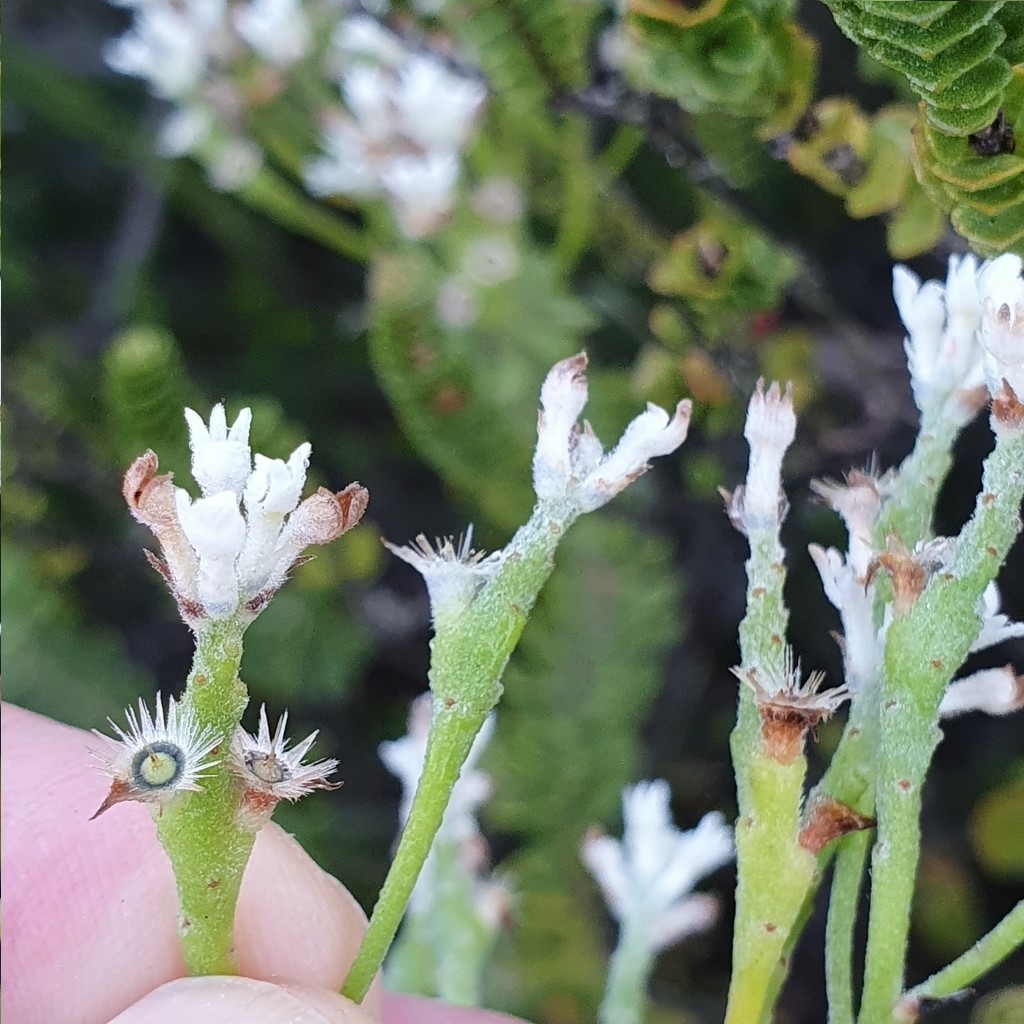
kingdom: Plantae
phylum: Tracheophyta
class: Magnoliopsida
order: Proteales
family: Proteaceae
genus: Conospermum
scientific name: Conospermum ellipticum
